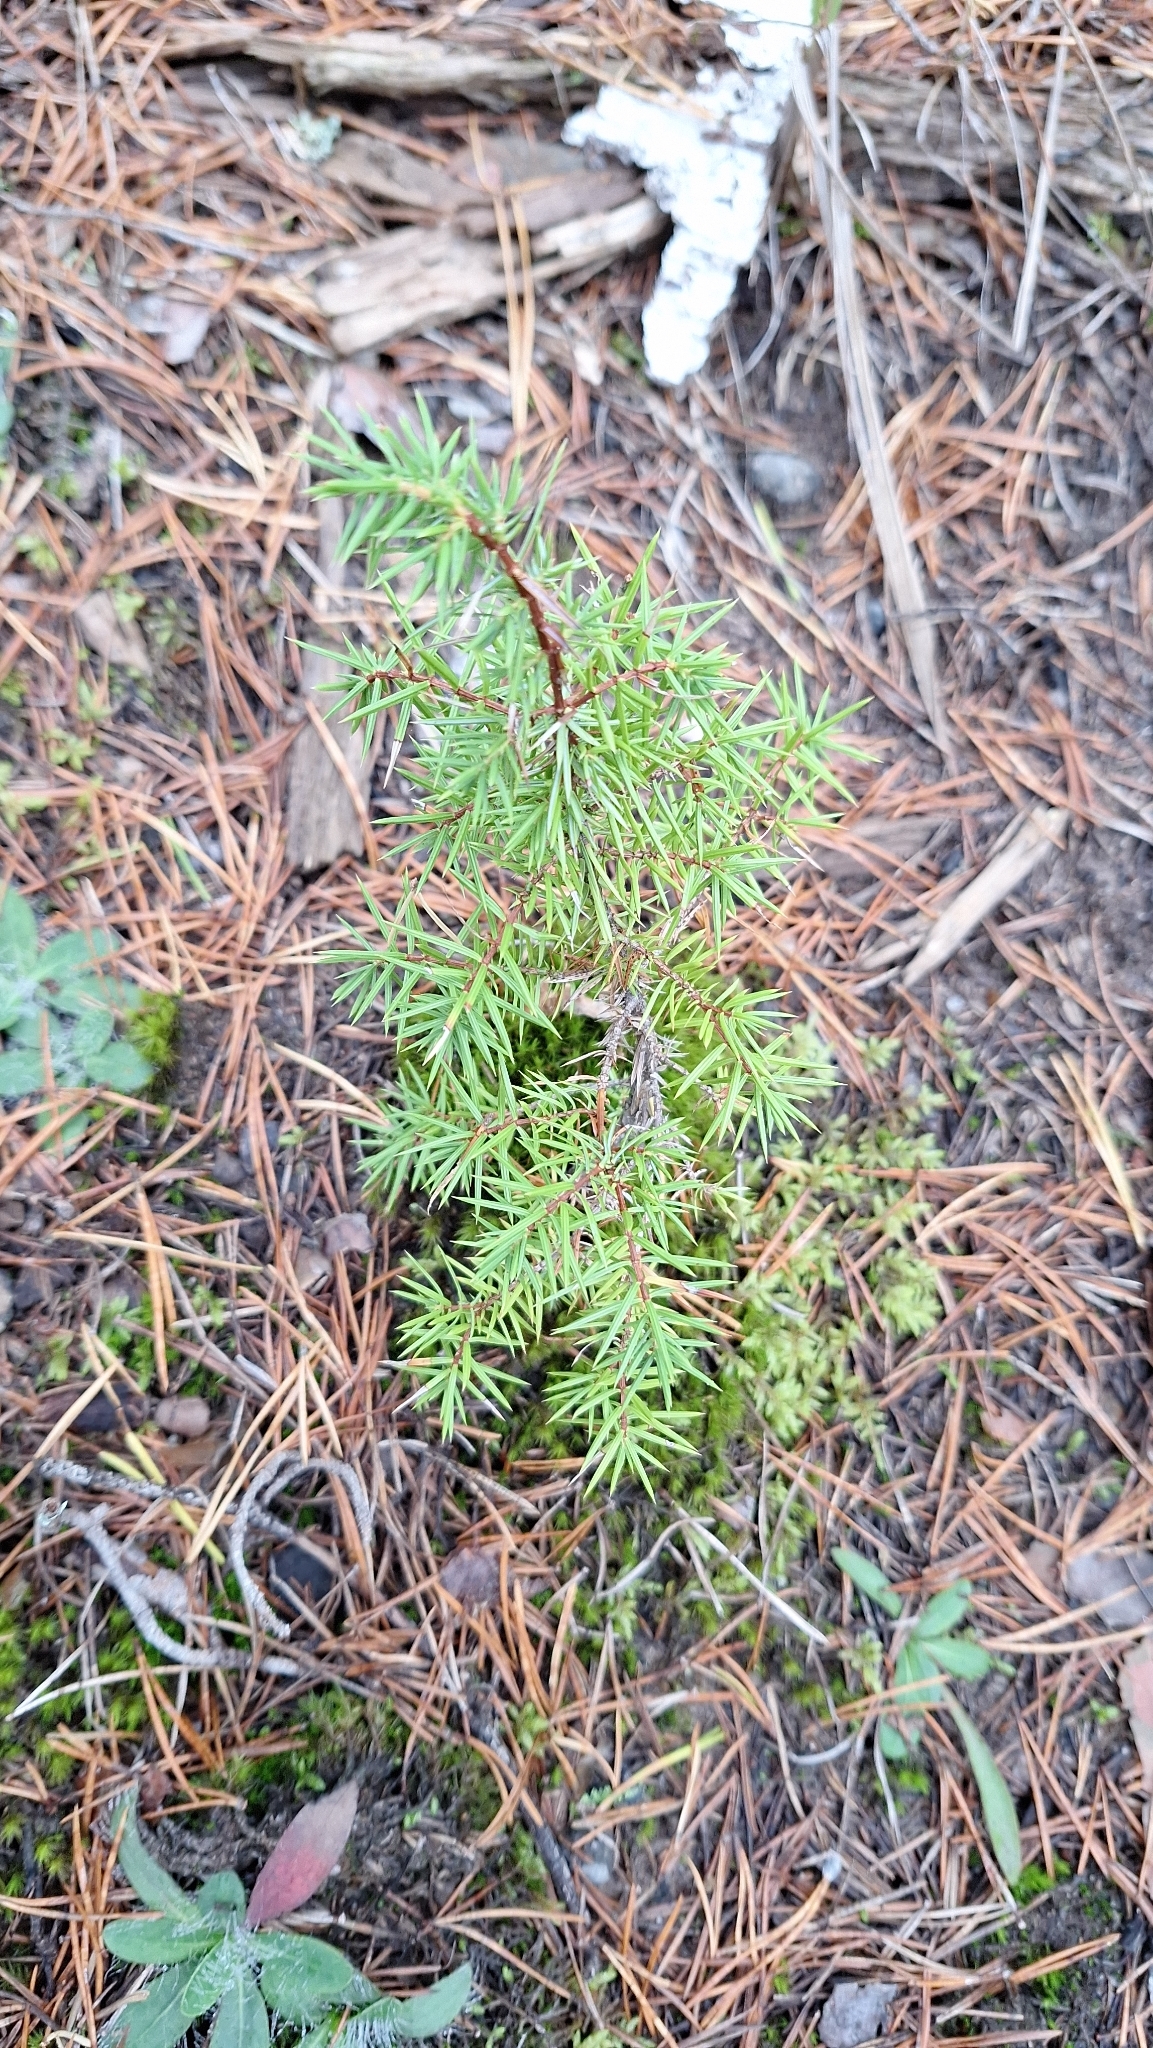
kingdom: Plantae
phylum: Tracheophyta
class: Pinopsida
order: Pinales
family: Cupressaceae
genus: Juniperus
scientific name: Juniperus communis
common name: Common juniper
